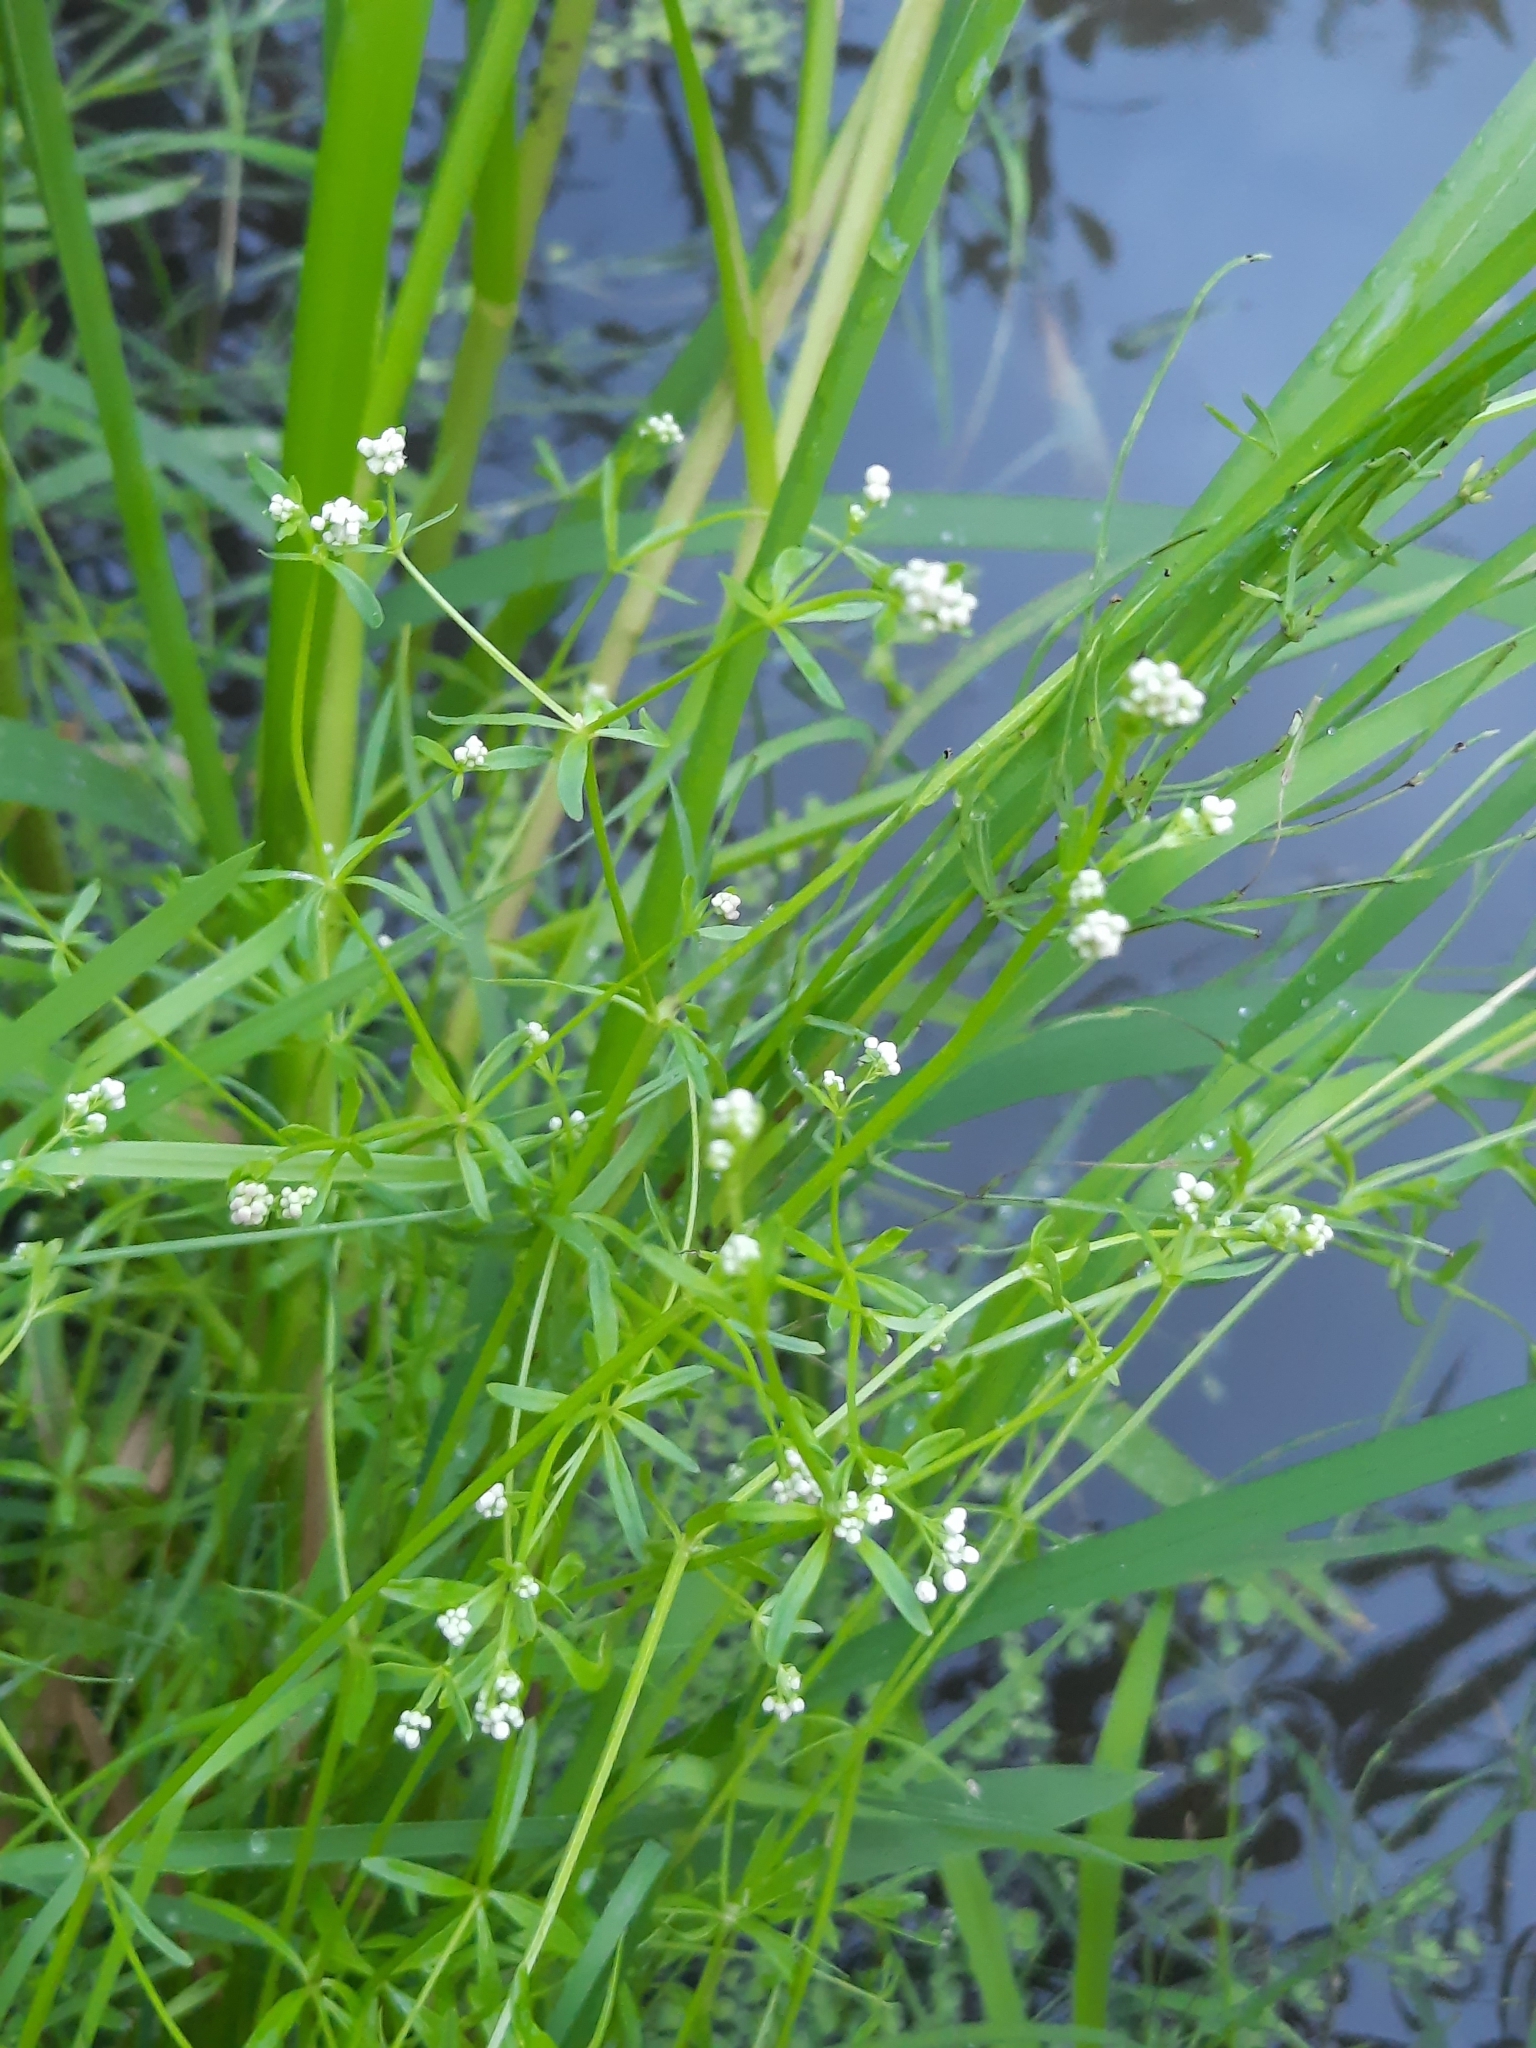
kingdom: Plantae
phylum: Tracheophyta
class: Magnoliopsida
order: Gentianales
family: Rubiaceae
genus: Galium
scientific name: Galium palustre
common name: Common marsh-bedstraw
